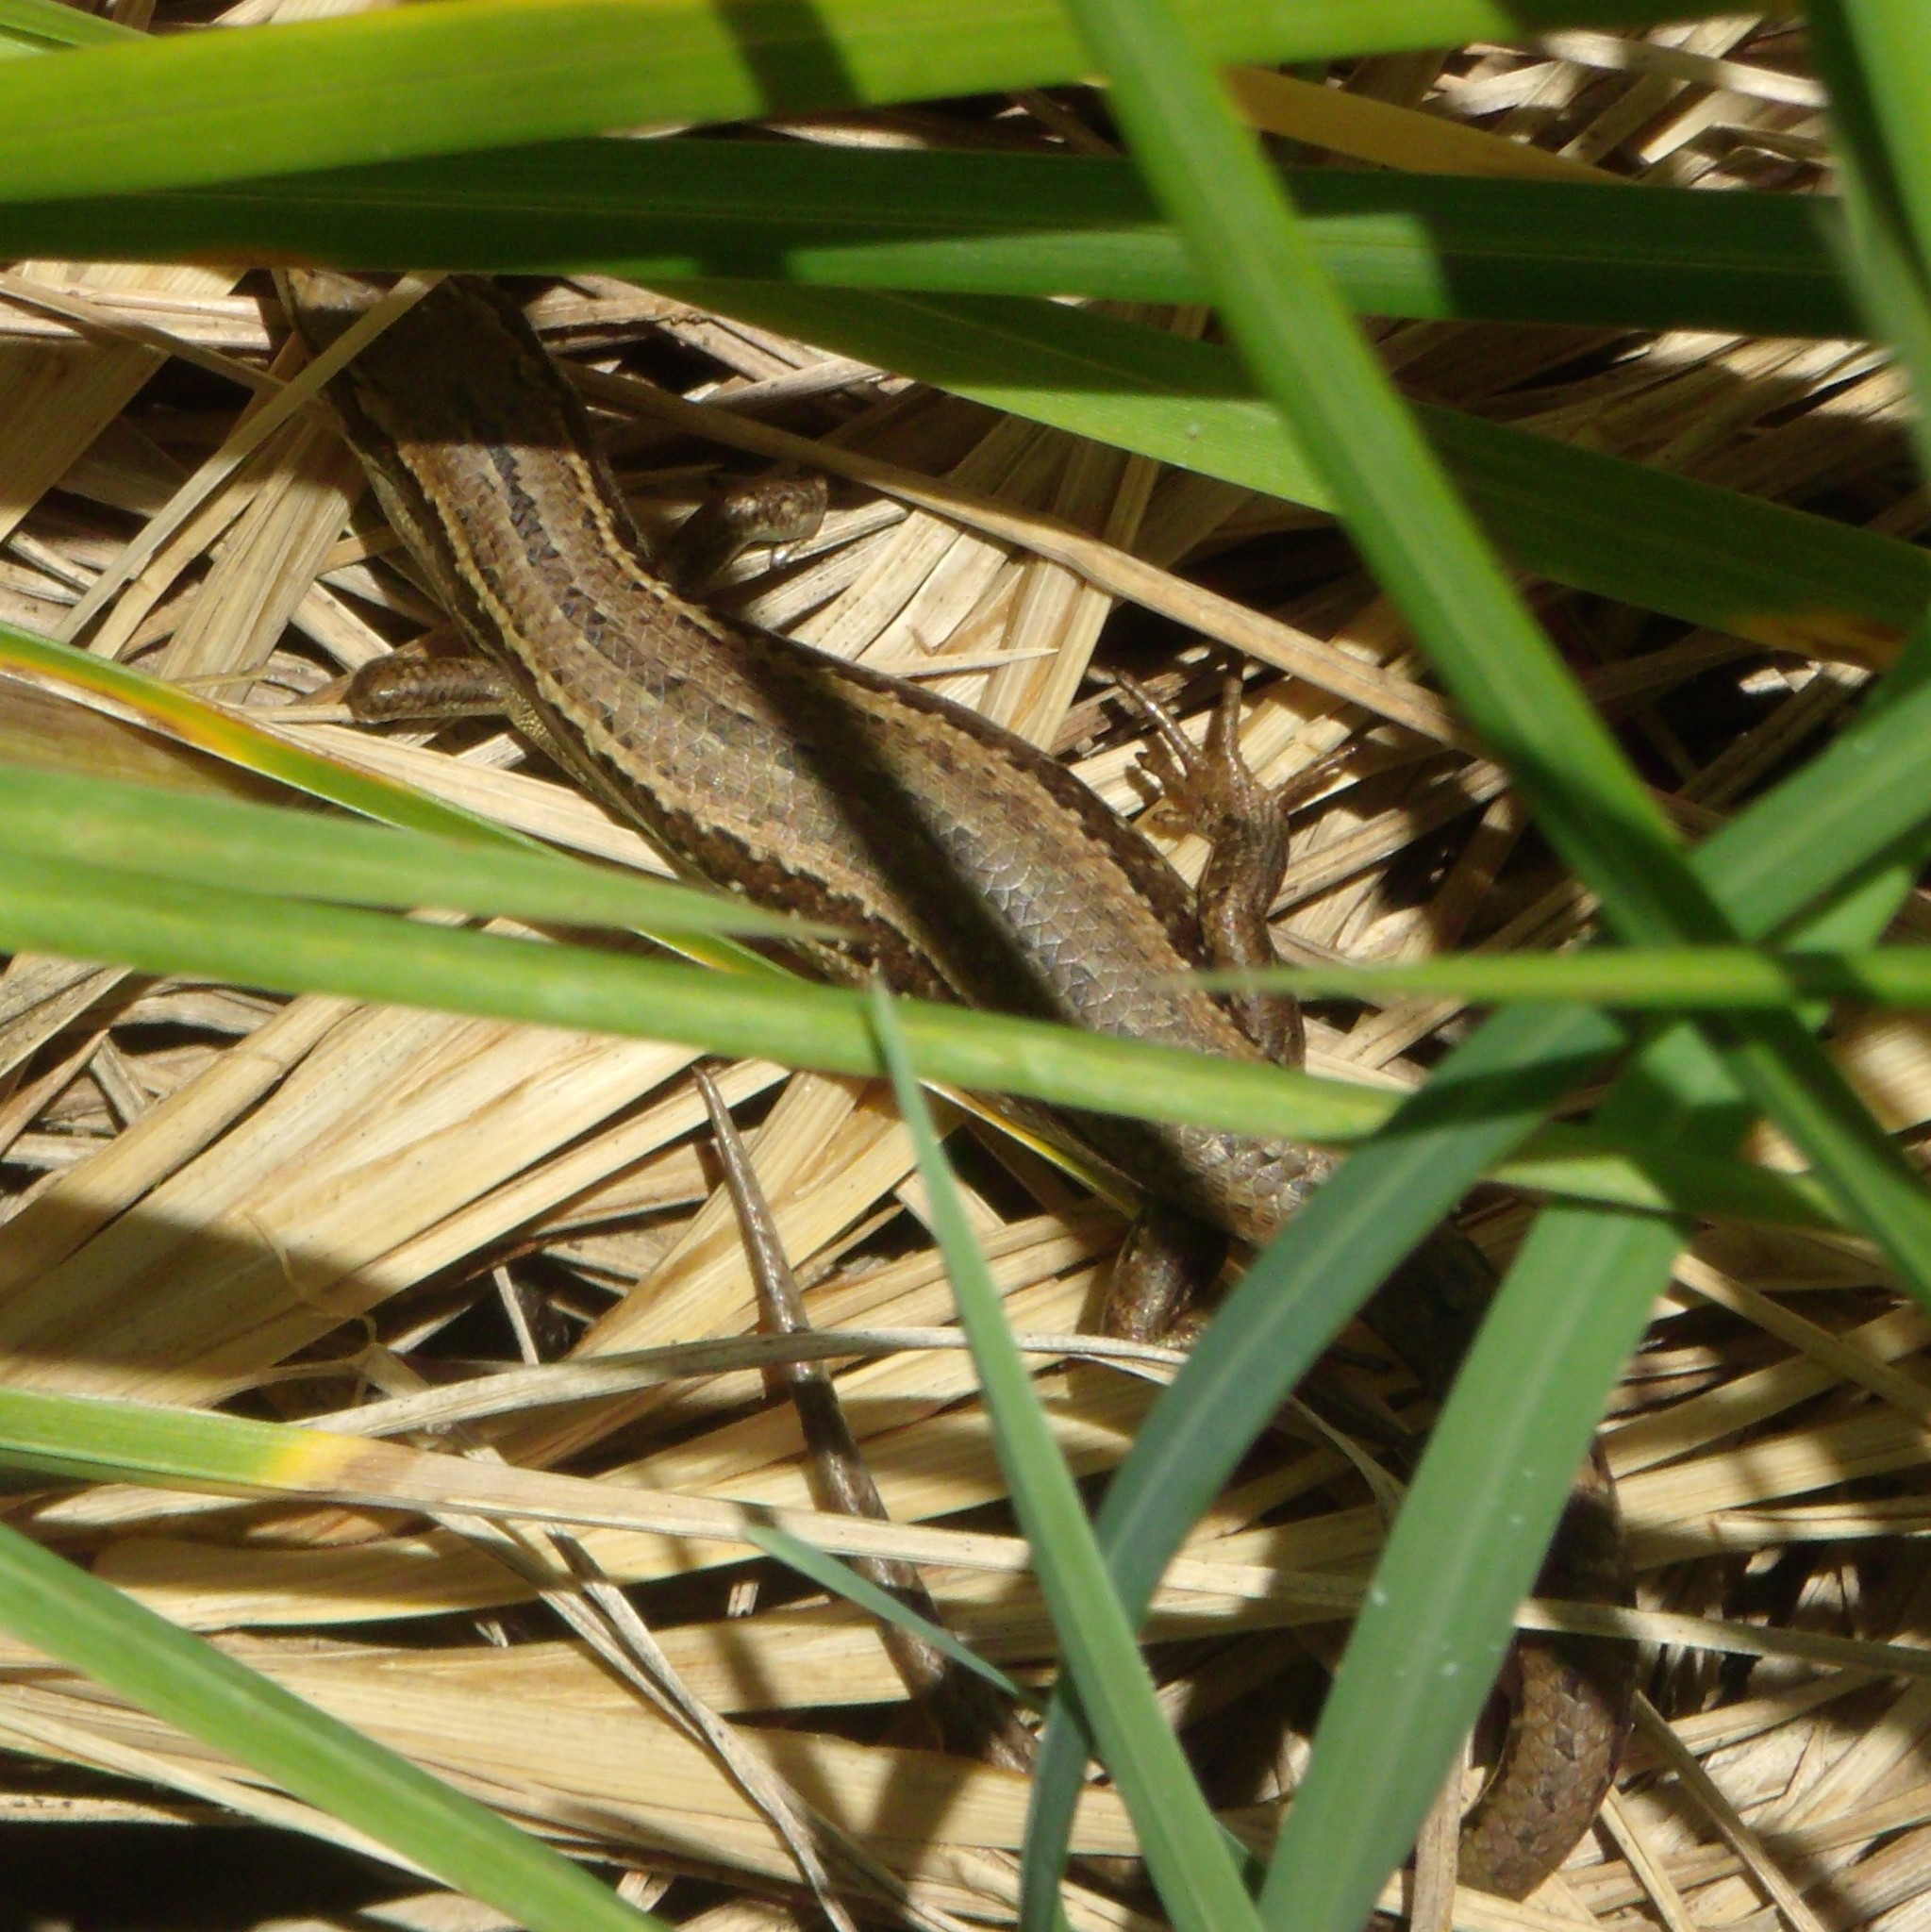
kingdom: Animalia
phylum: Chordata
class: Squamata
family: Scincidae
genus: Oligosoma
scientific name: Oligosoma polychroma
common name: Common new zealand skink
